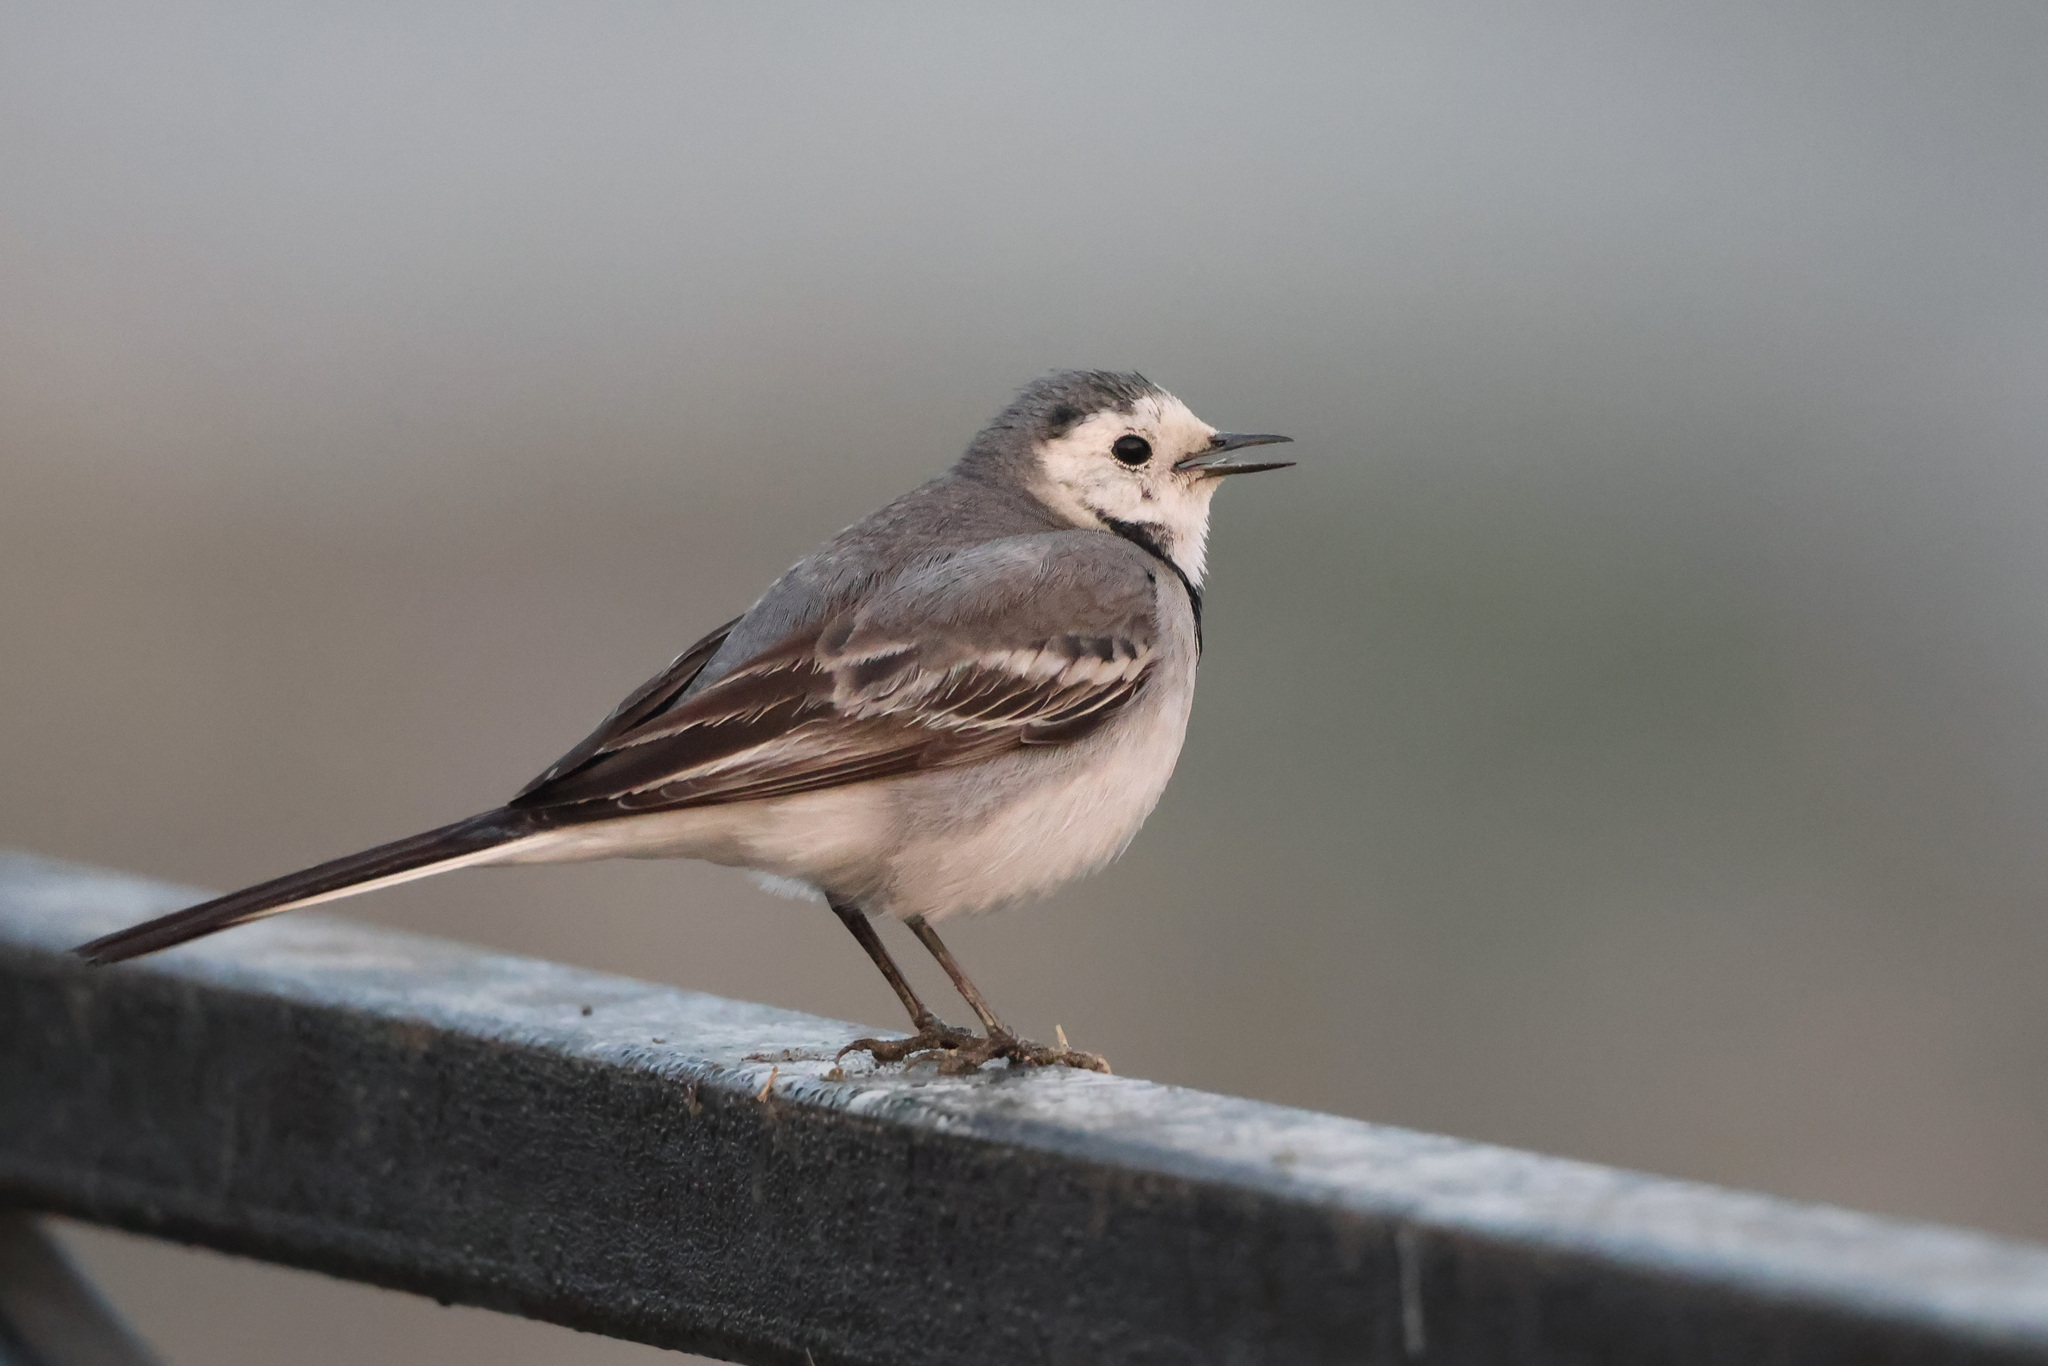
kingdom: Animalia
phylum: Chordata
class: Aves
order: Passeriformes
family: Motacillidae
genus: Motacilla
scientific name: Motacilla alba
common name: White wagtail
